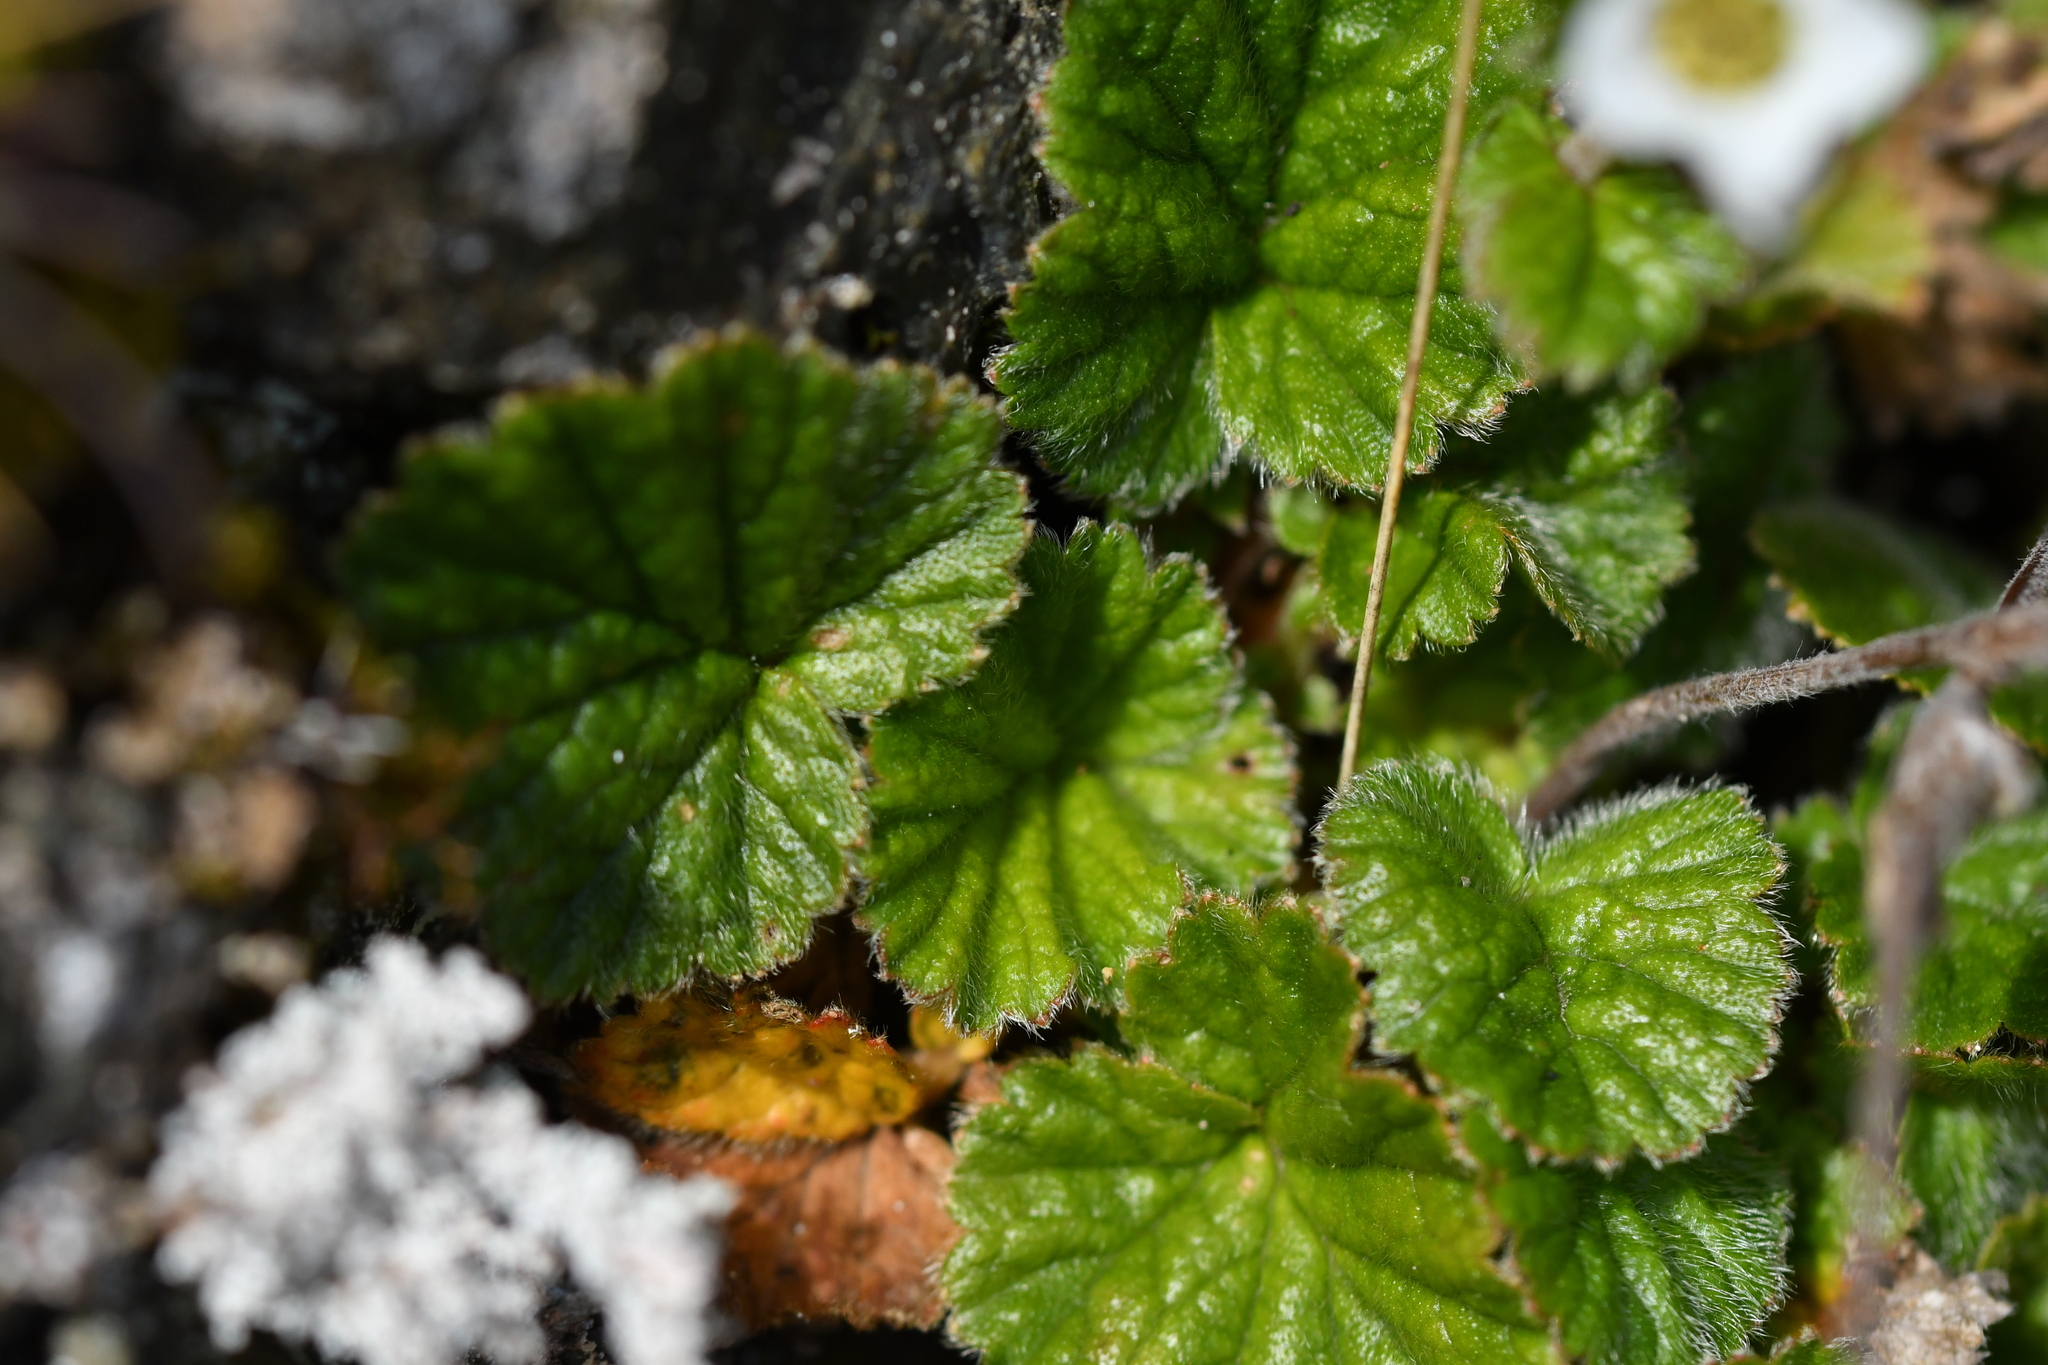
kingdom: Plantae
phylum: Tracheophyta
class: Magnoliopsida
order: Rosales
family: Rosaceae
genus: Geum
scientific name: Geum cockaynei
